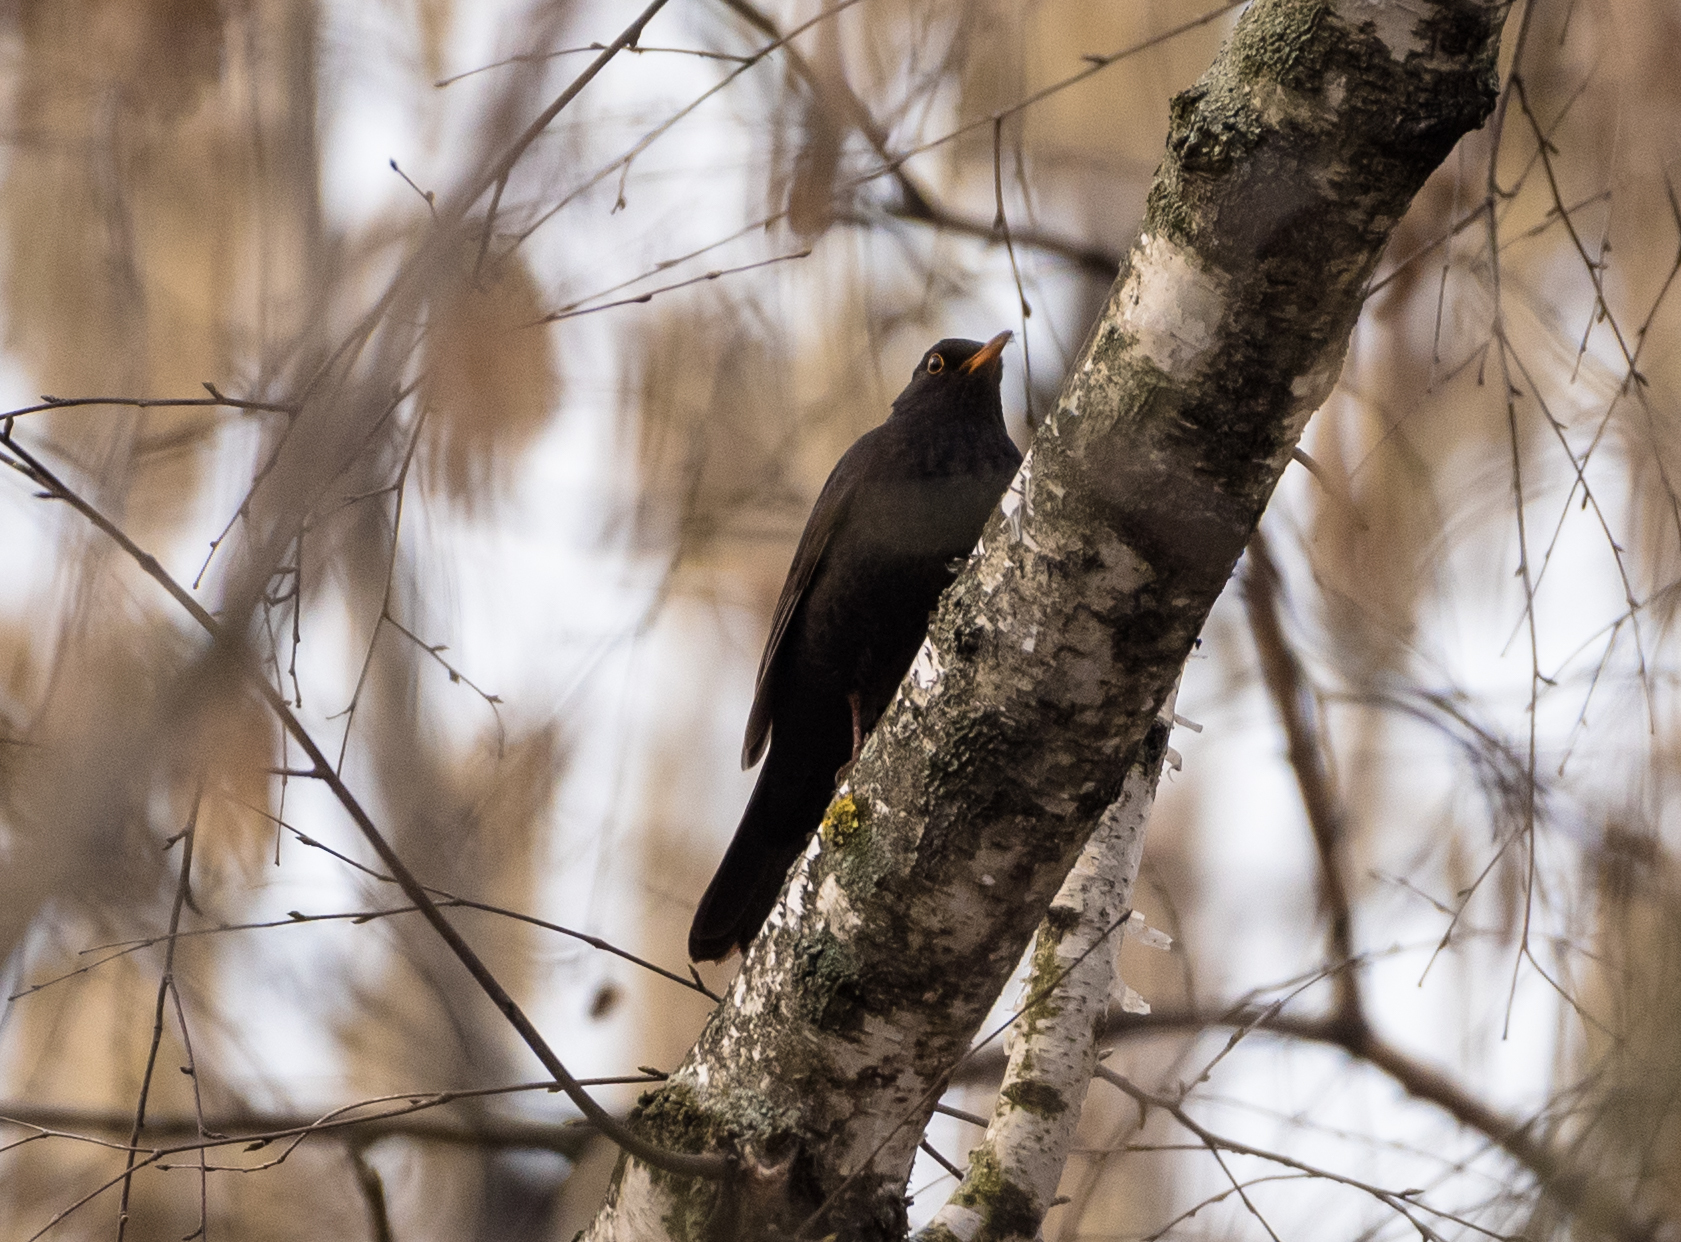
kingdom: Animalia
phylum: Chordata
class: Aves
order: Passeriformes
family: Turdidae
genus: Turdus
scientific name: Turdus merula
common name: Common blackbird
